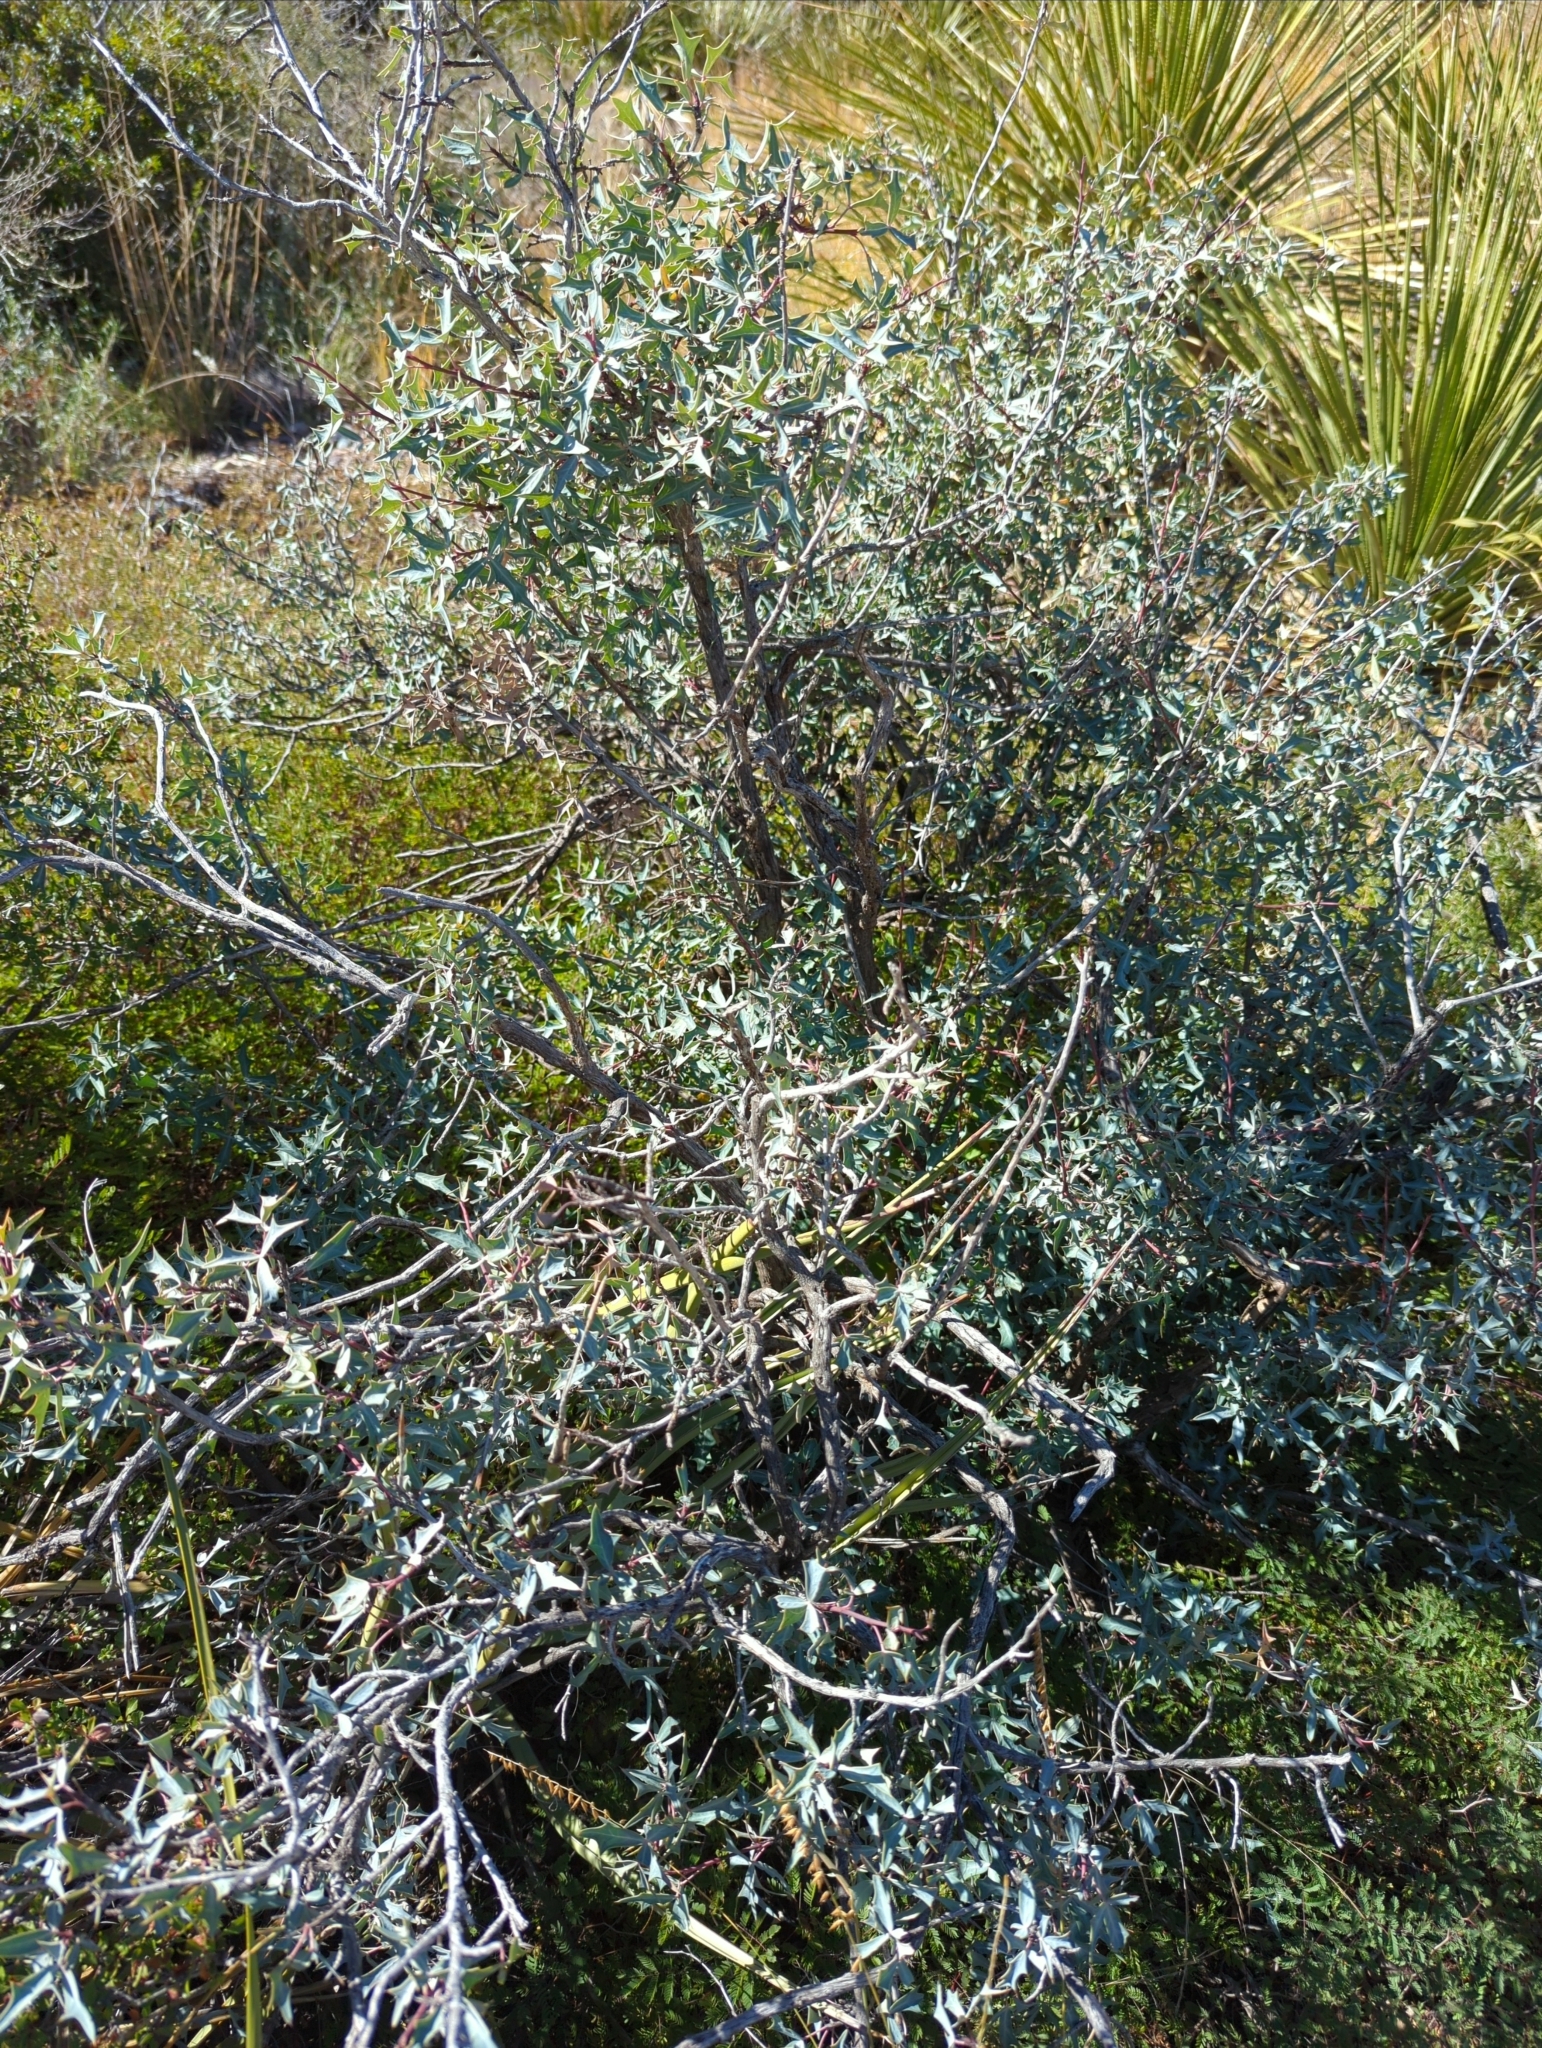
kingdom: Plantae
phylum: Tracheophyta
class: Magnoliopsida
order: Ranunculales
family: Berberidaceae
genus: Alloberberis
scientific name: Alloberberis trifoliolata
